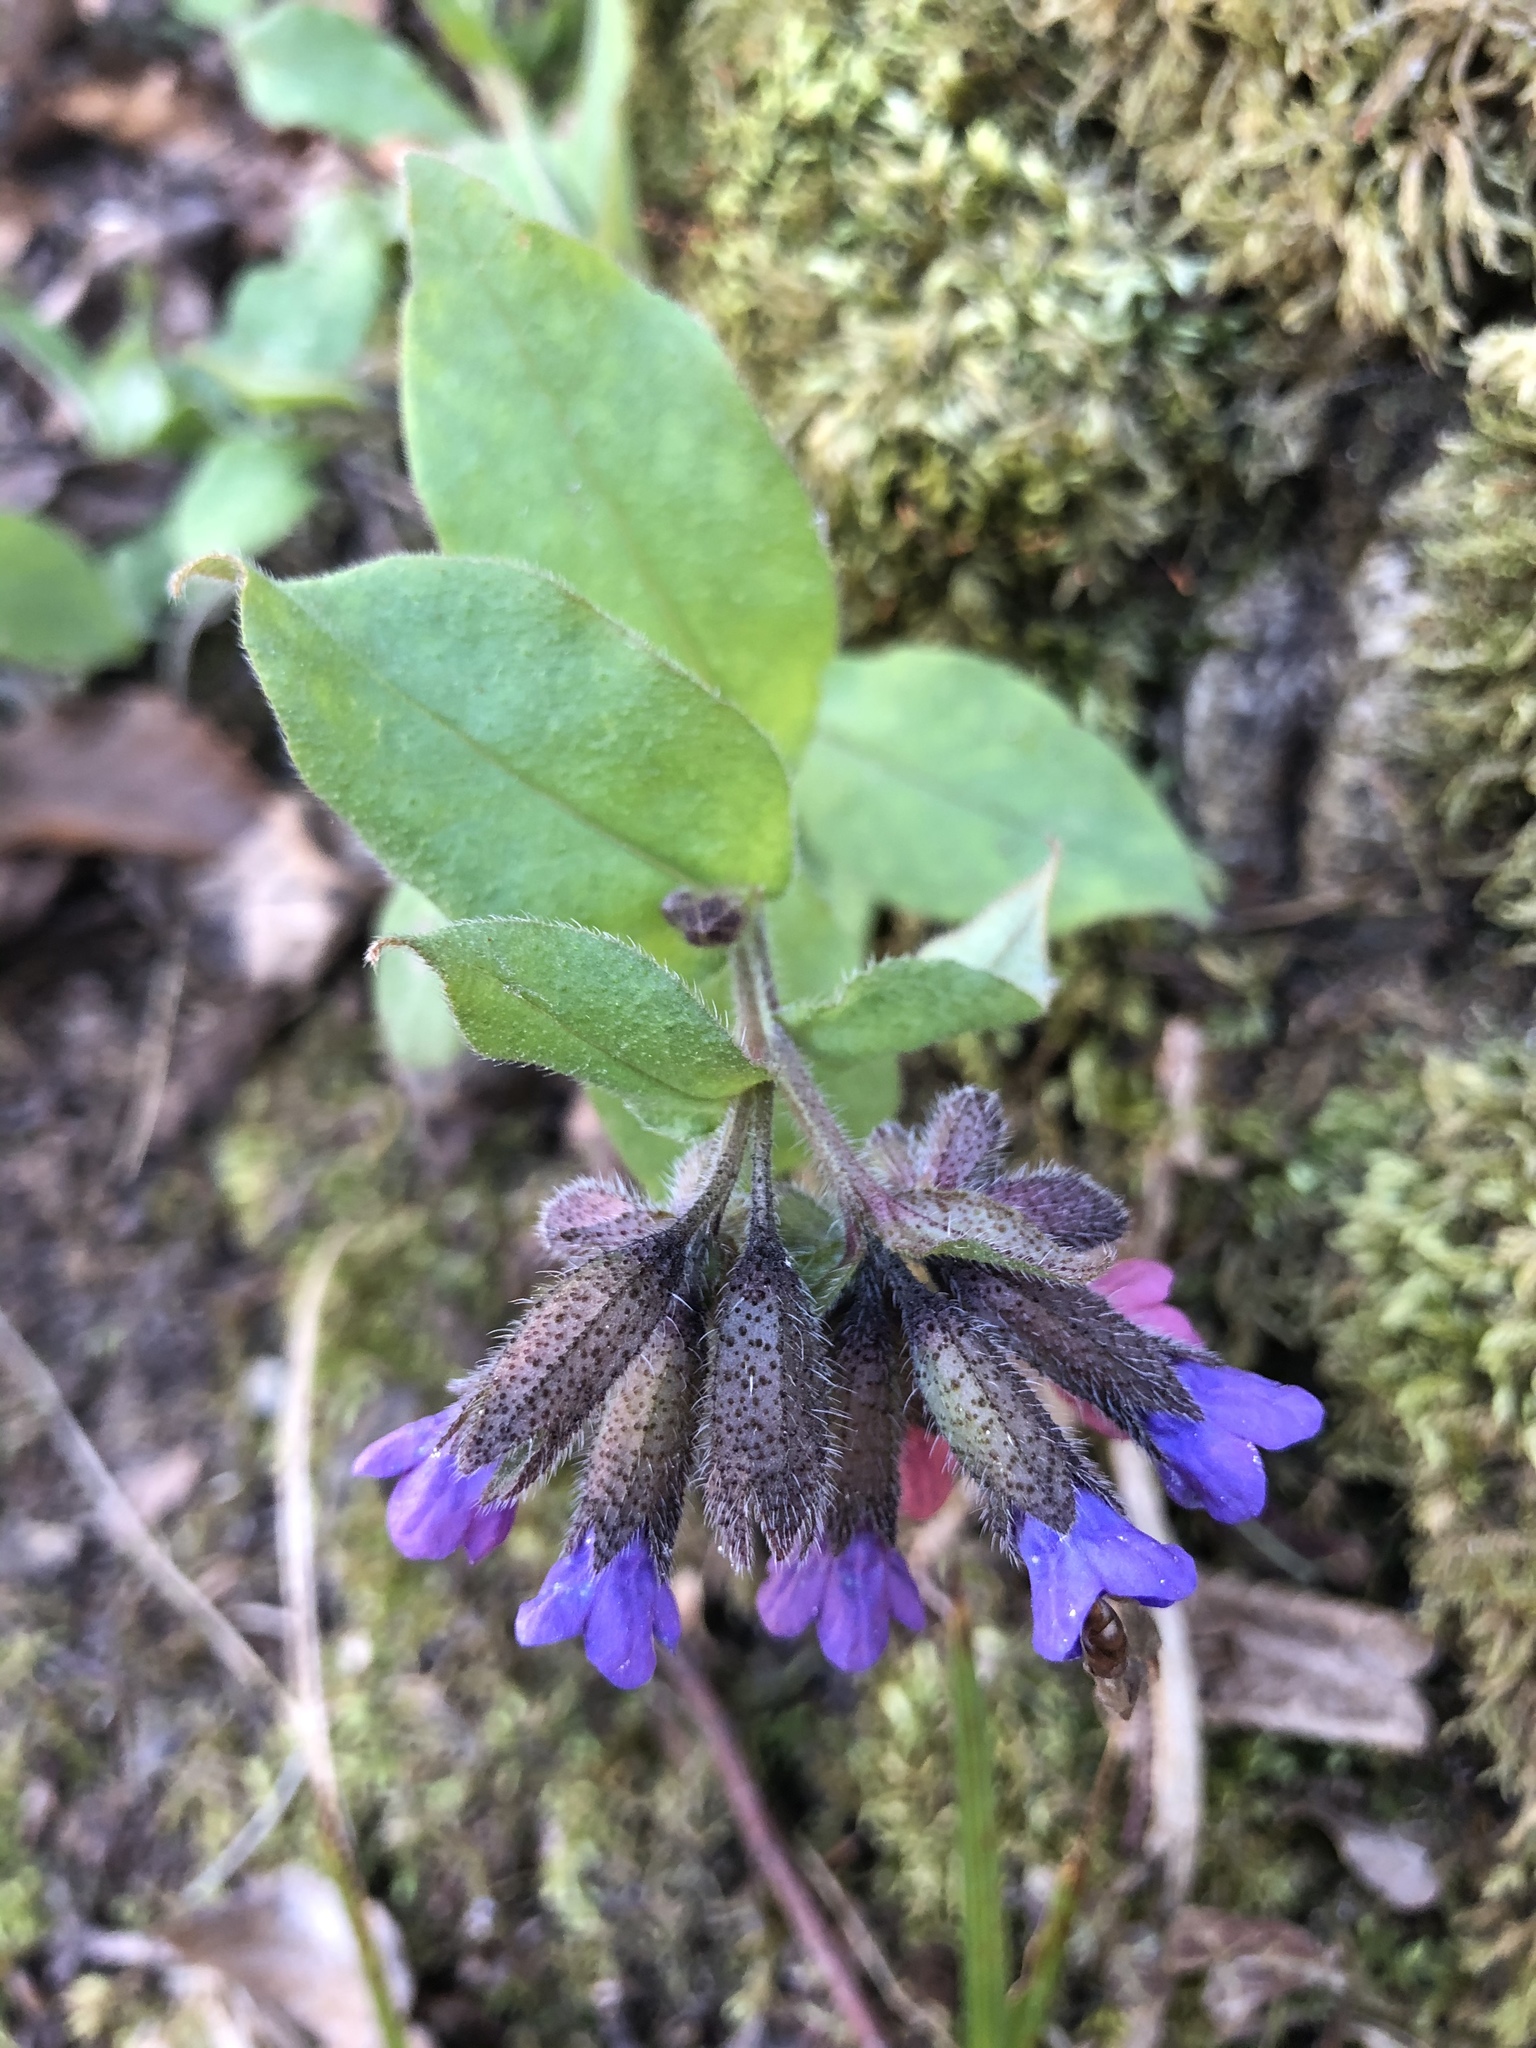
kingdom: Plantae
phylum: Tracheophyta
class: Magnoliopsida
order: Boraginales
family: Boraginaceae
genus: Pulmonaria
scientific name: Pulmonaria officinalis
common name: Lungwort
